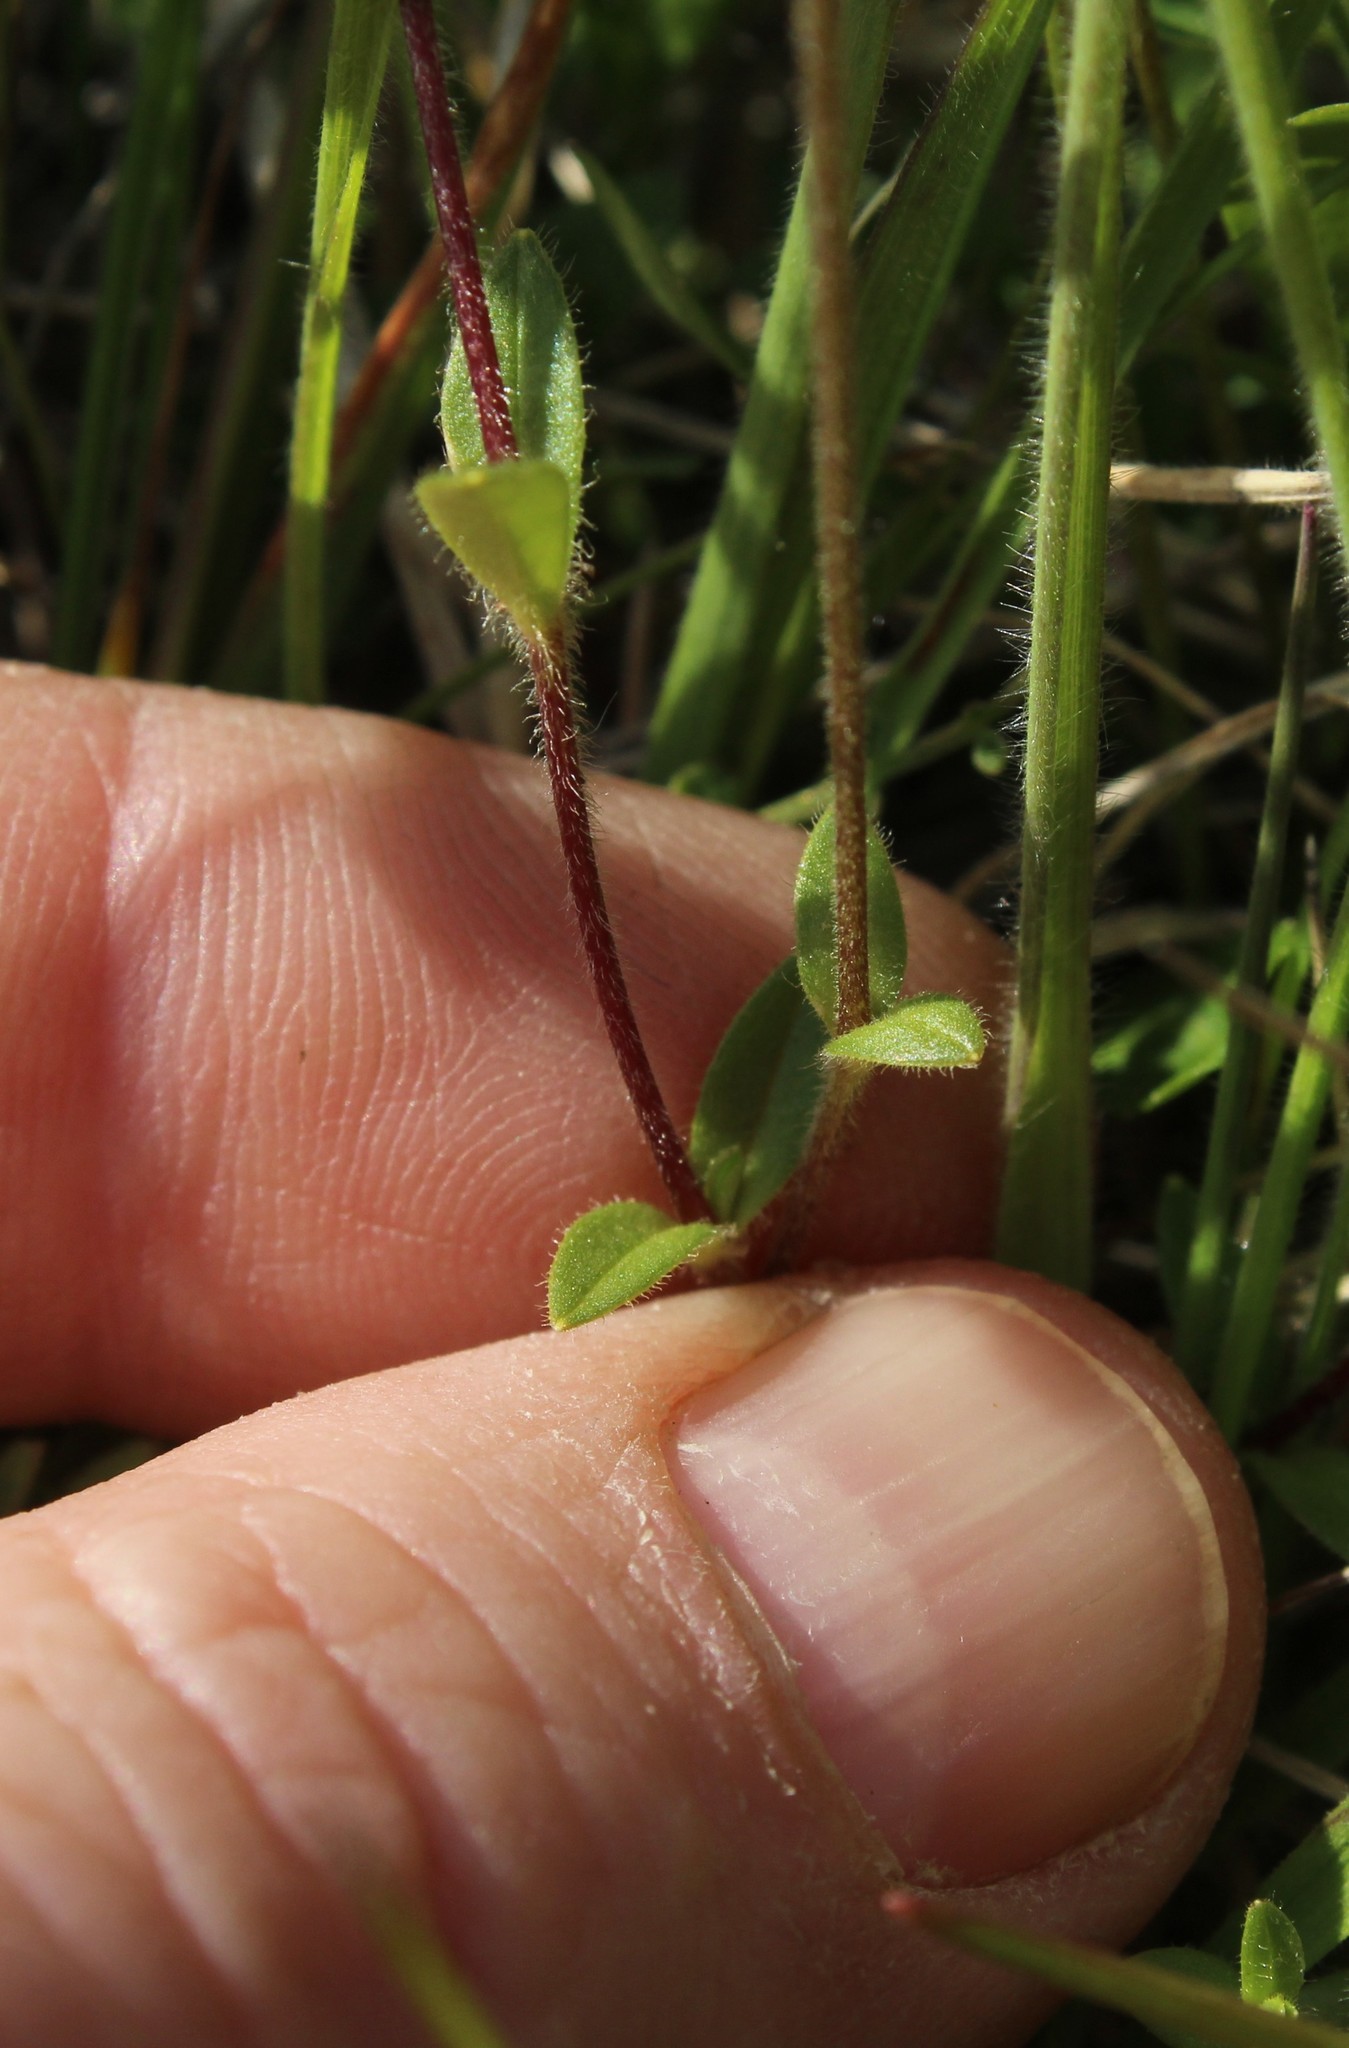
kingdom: Plantae
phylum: Tracheophyta
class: Magnoliopsida
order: Caryophyllales
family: Caryophyllaceae
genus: Cerastium
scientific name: Cerastium regelii
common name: Regel's chickweed
